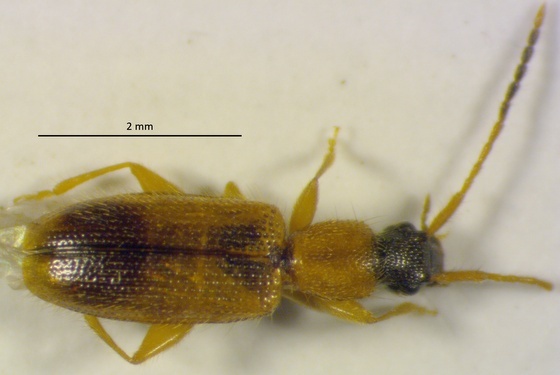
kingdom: Animalia
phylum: Arthropoda
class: Insecta
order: Coleoptera
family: Silvanidae
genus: Telephanus
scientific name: Telephanus velox
